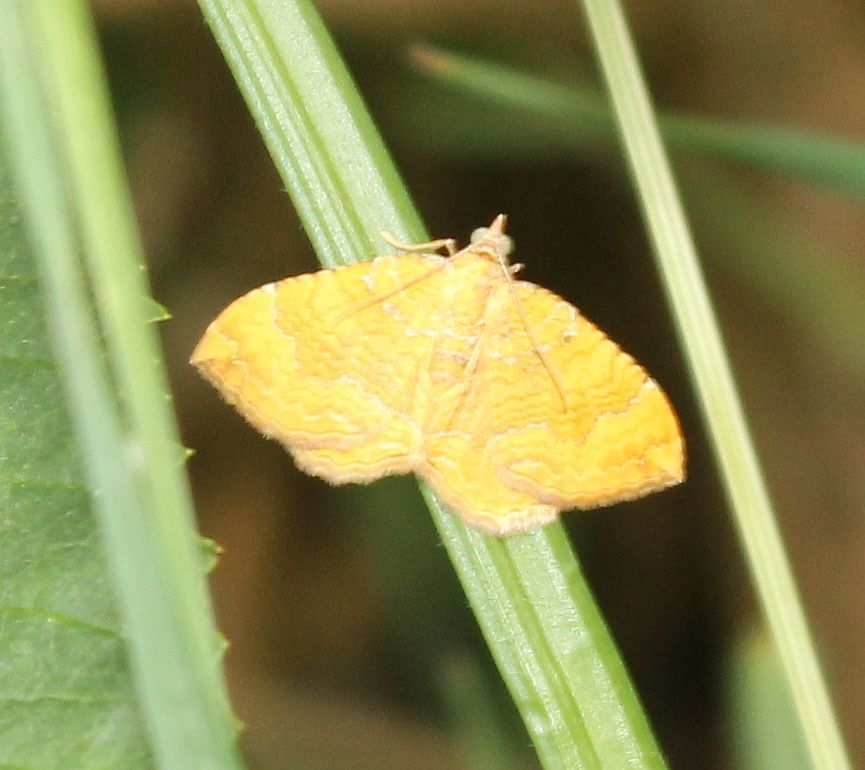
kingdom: Animalia
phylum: Arthropoda
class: Insecta
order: Lepidoptera
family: Geometridae
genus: Camptogramma
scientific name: Camptogramma bilineata
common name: Yellow shell
